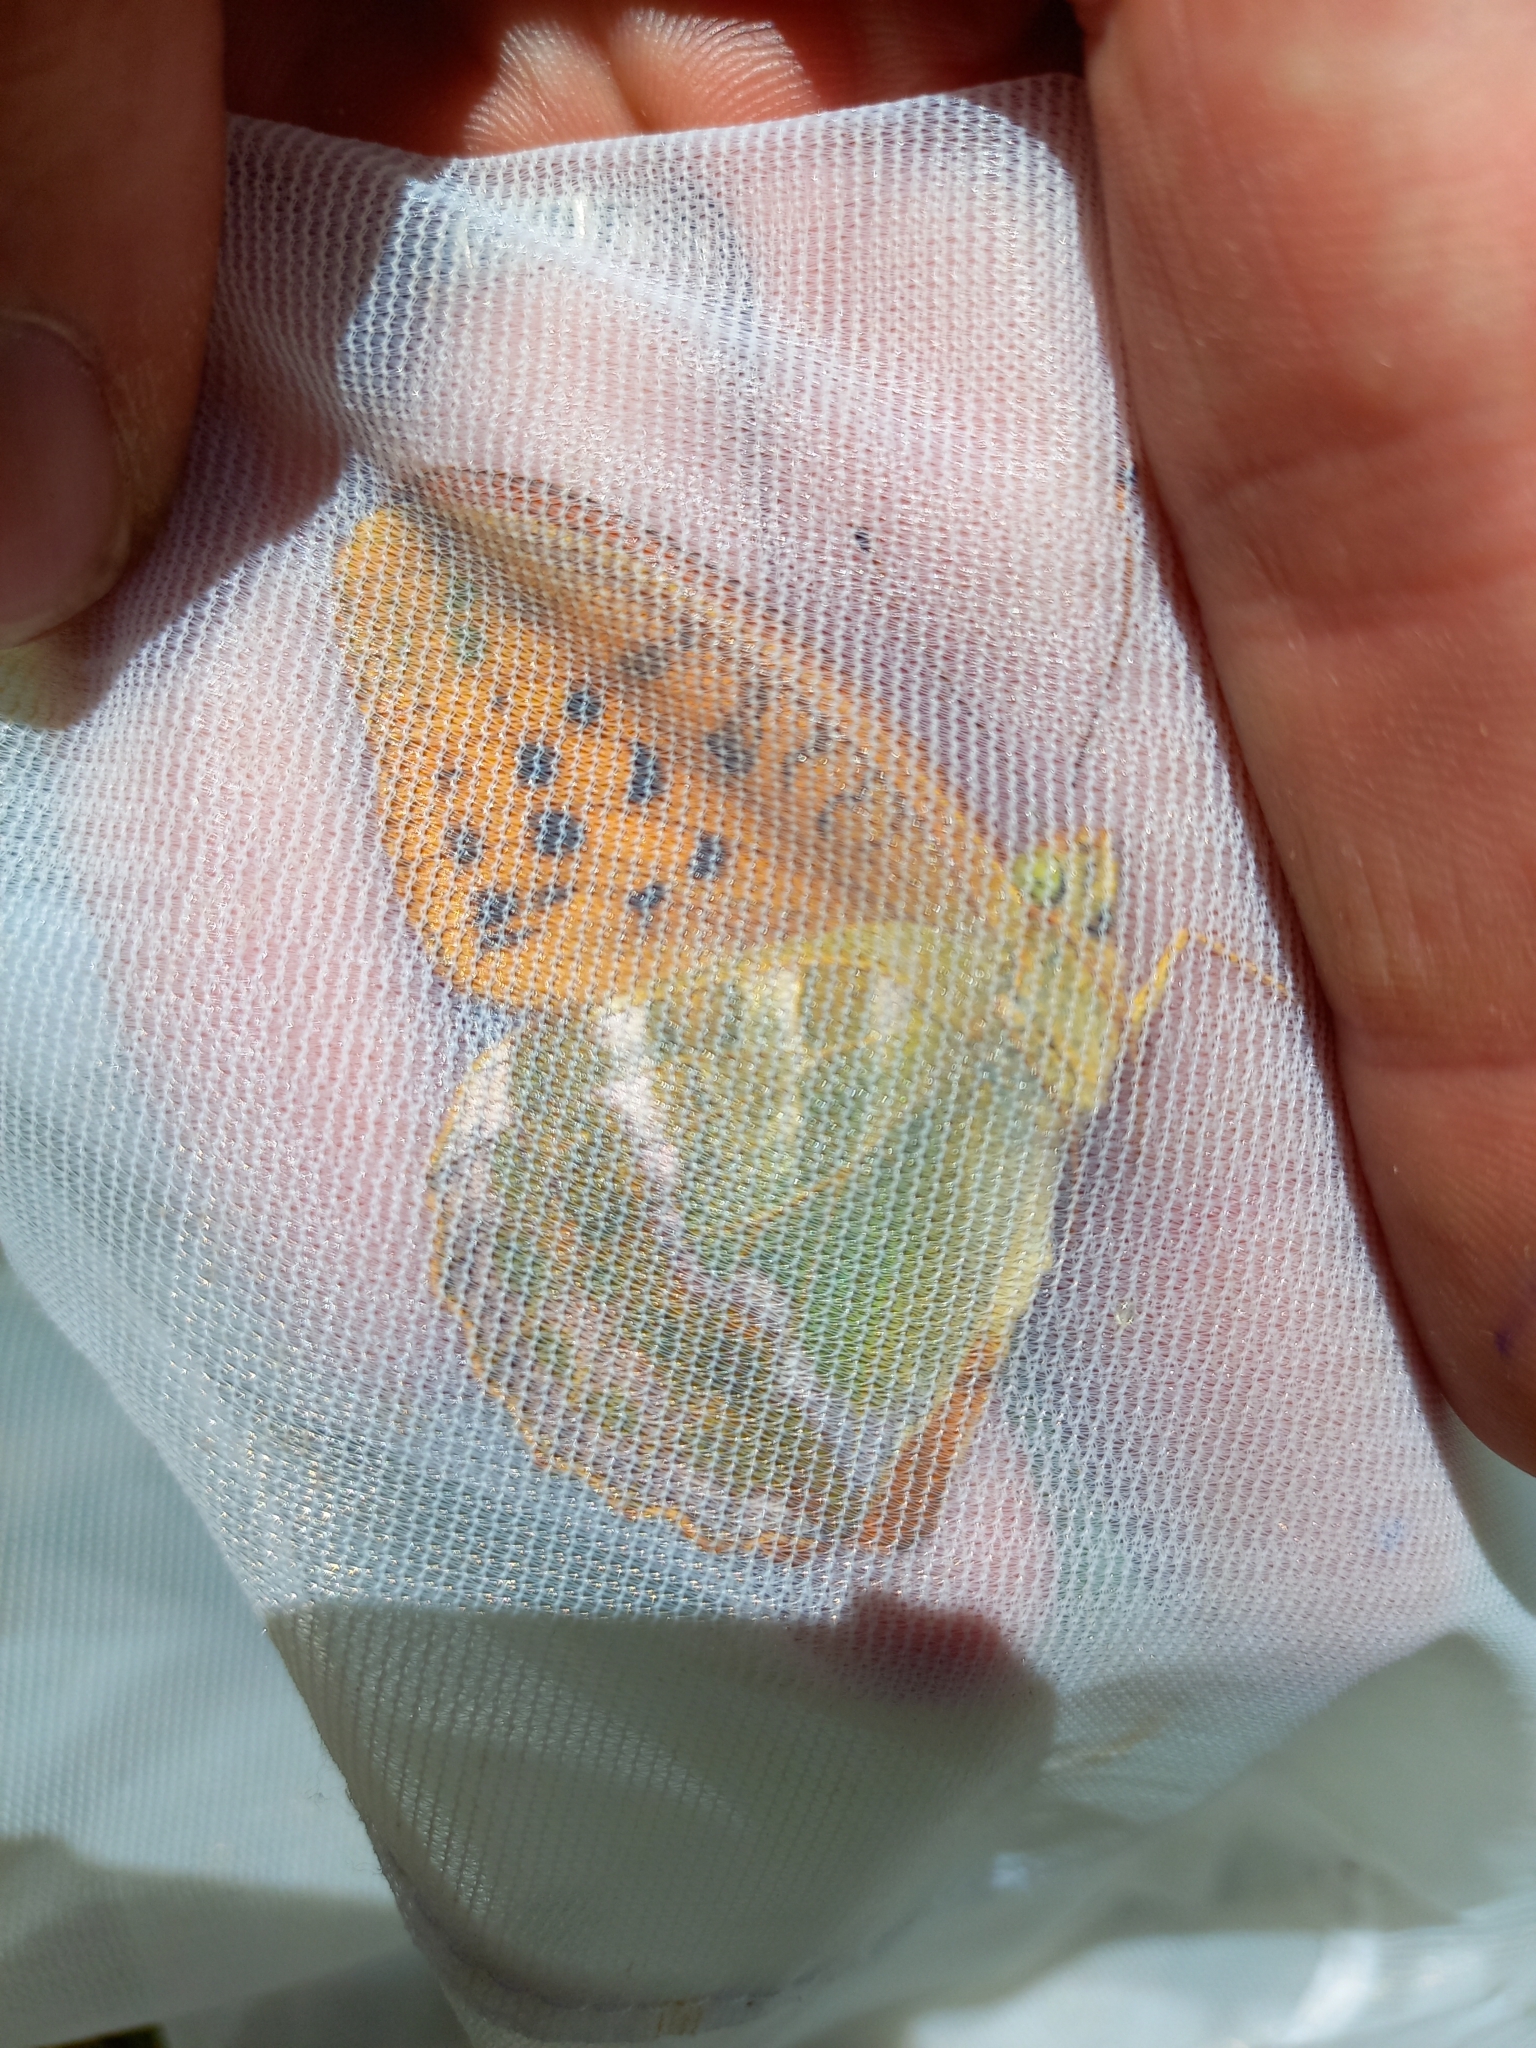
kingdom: Animalia
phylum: Arthropoda
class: Insecta
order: Lepidoptera
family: Nymphalidae
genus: Argynnis
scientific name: Argynnis paphia
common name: Silver-washed fritillary
